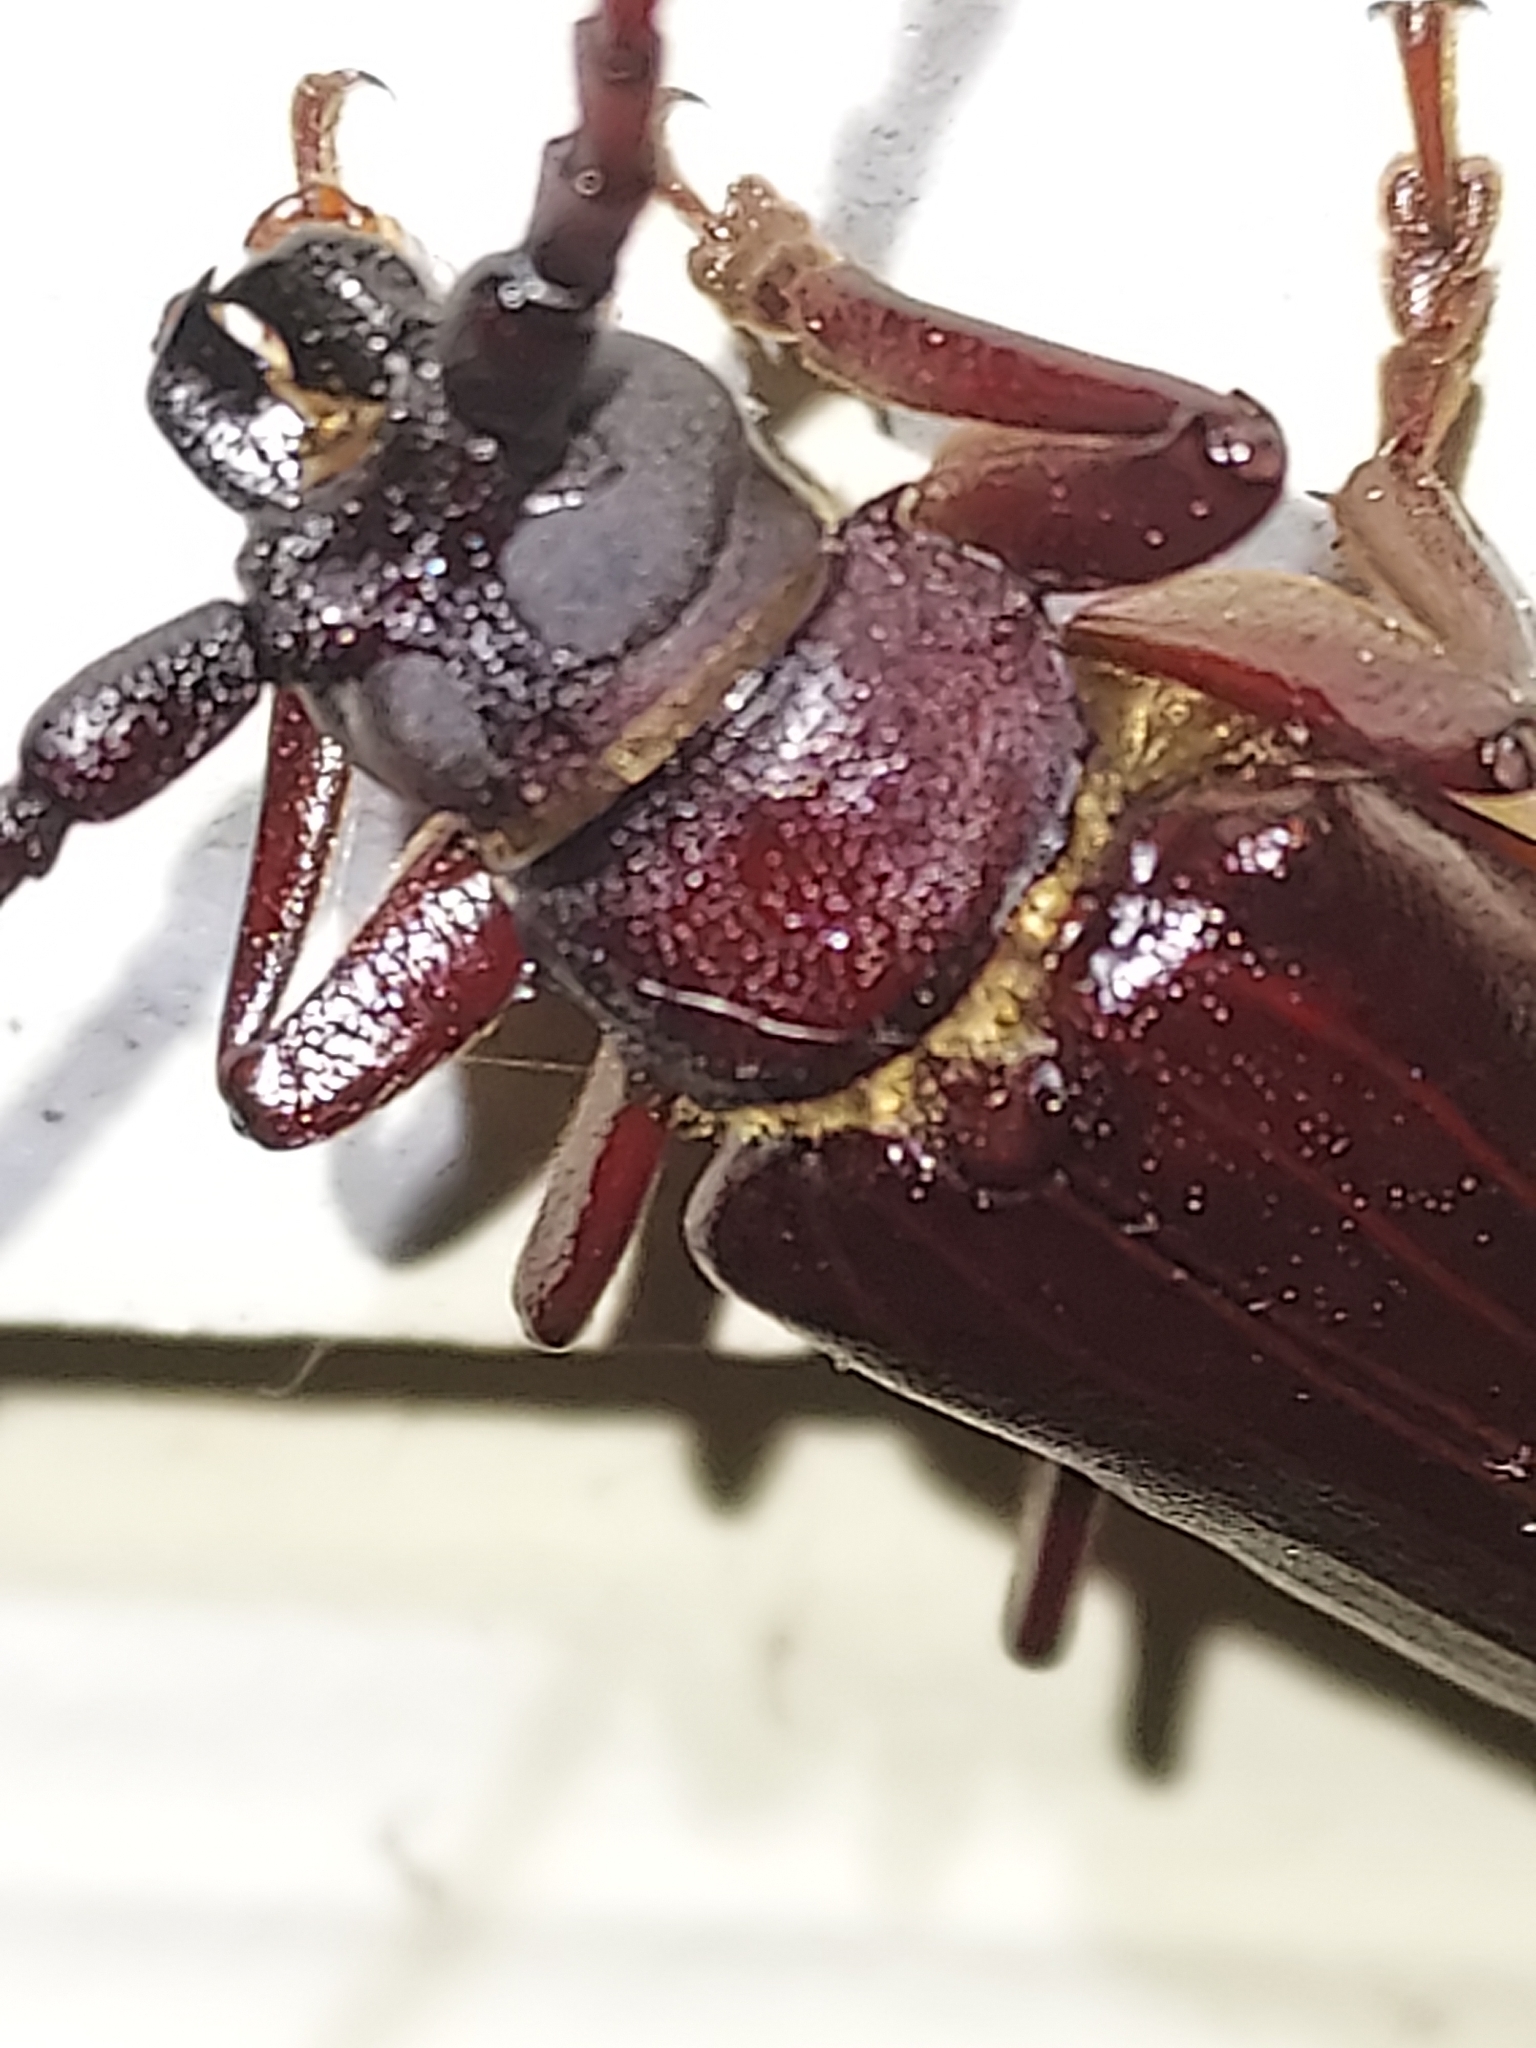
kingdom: Animalia
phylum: Arthropoda
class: Insecta
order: Coleoptera
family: Cerambycidae
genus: Orthosoma
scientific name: Orthosoma brunneum
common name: Brown prionid beetle
